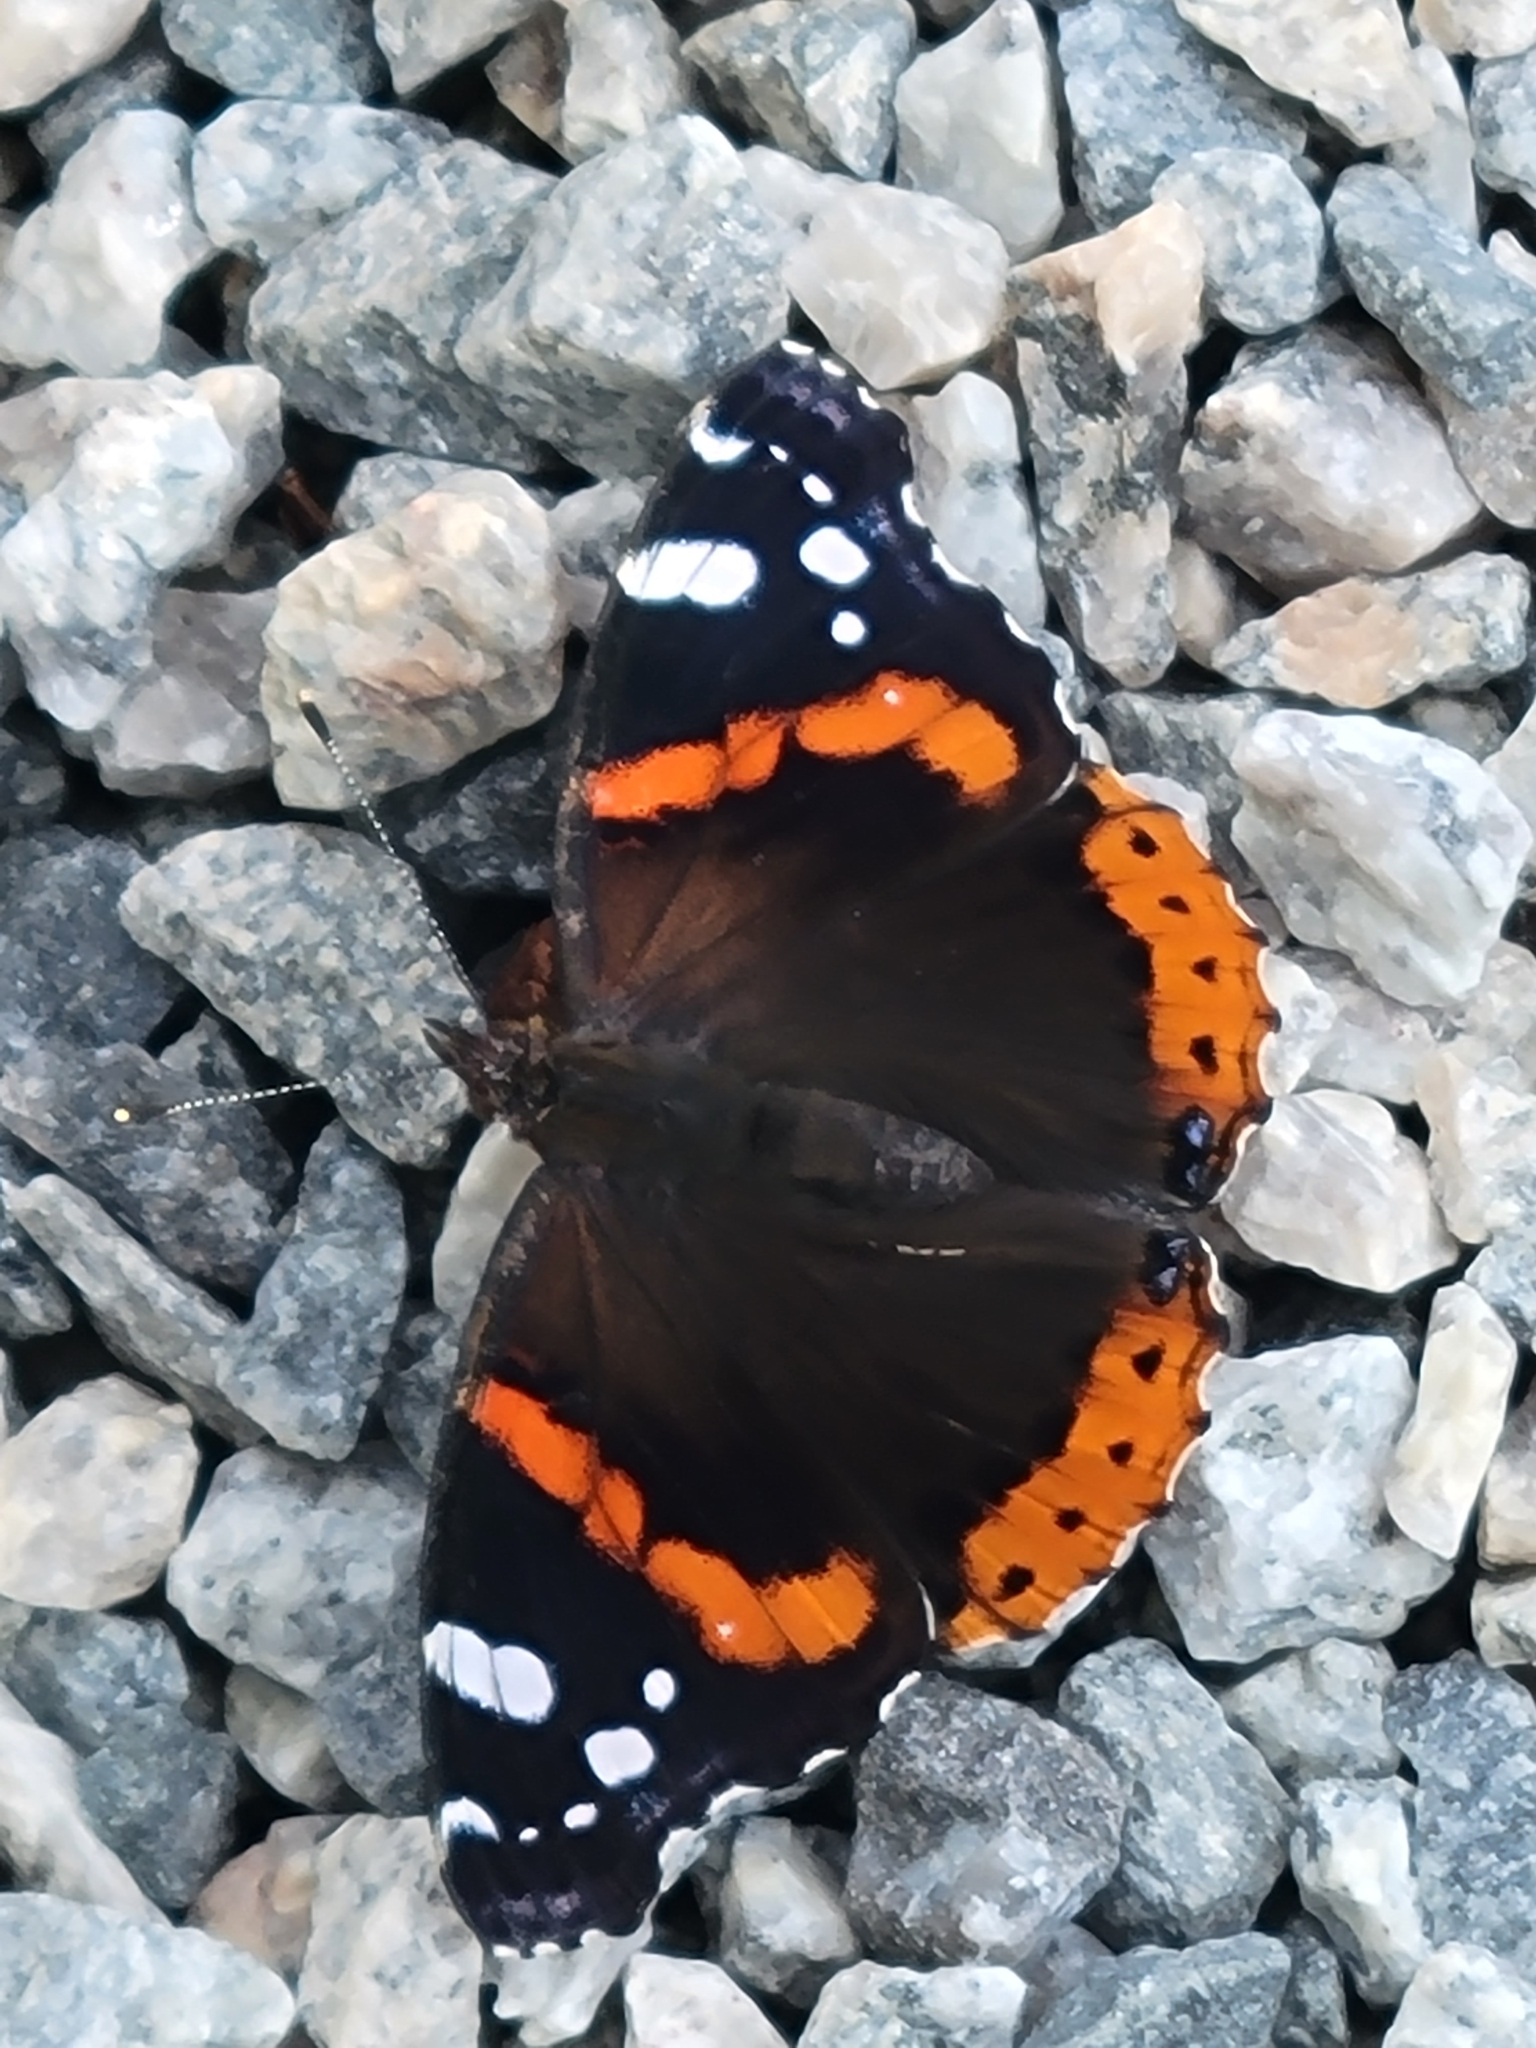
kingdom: Animalia
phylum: Arthropoda
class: Insecta
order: Lepidoptera
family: Nymphalidae
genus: Vanessa
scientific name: Vanessa atalanta
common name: Red admiral
